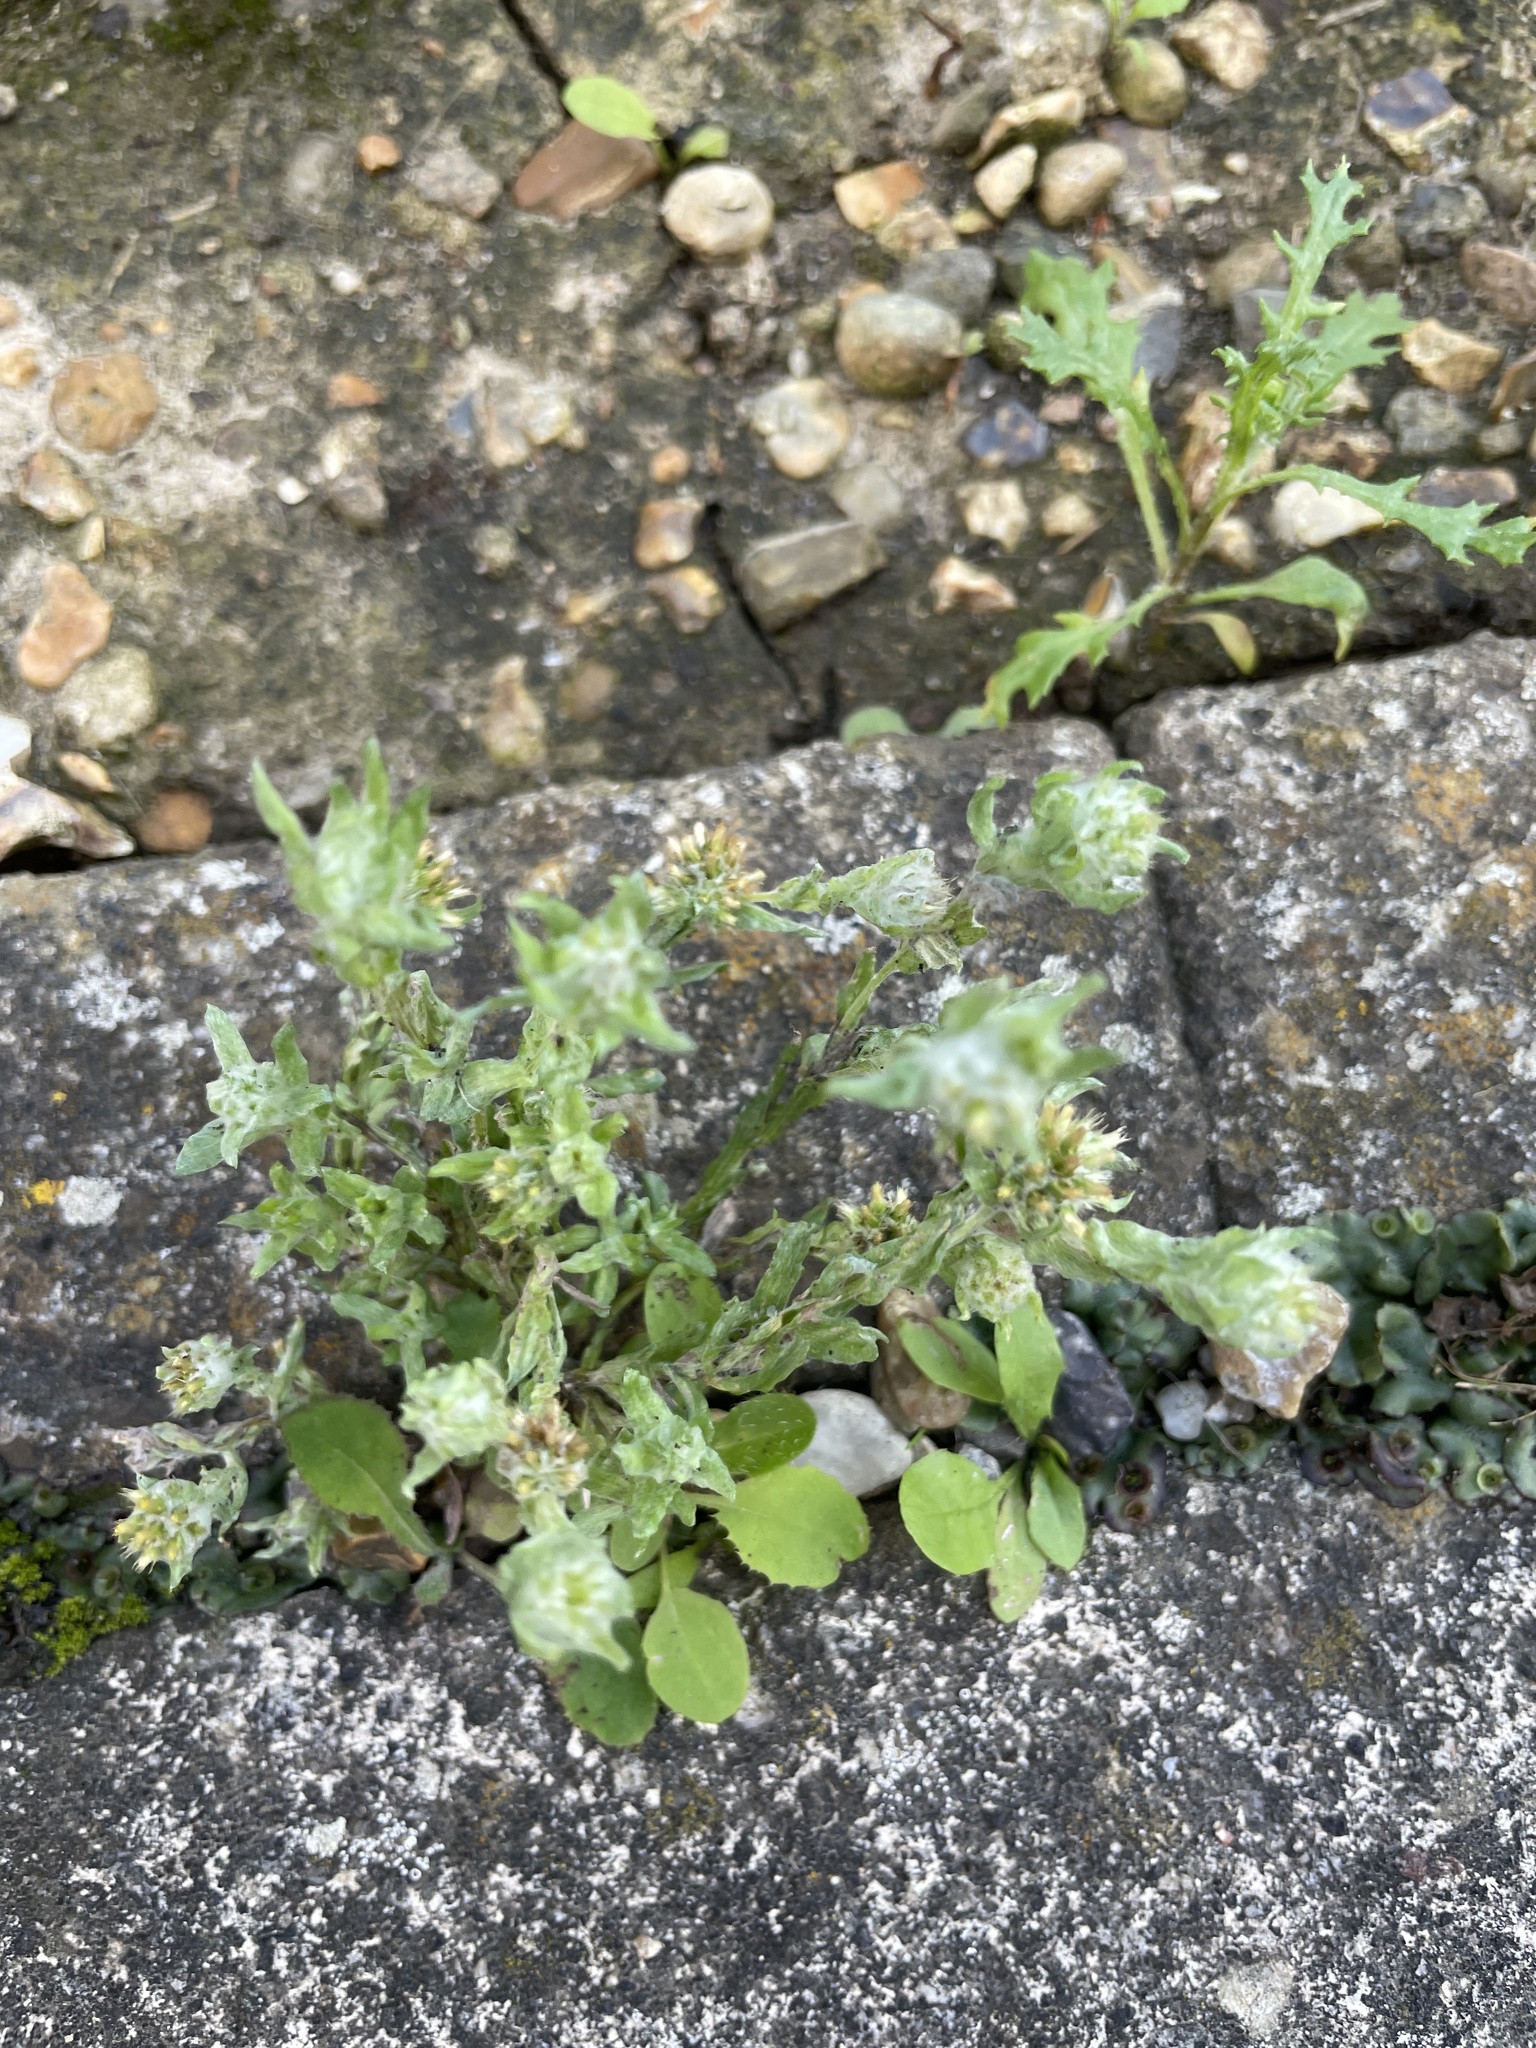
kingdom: Plantae
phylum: Tracheophyta
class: Magnoliopsida
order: Asterales
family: Asteraceae
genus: Filago
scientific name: Filago germanica
